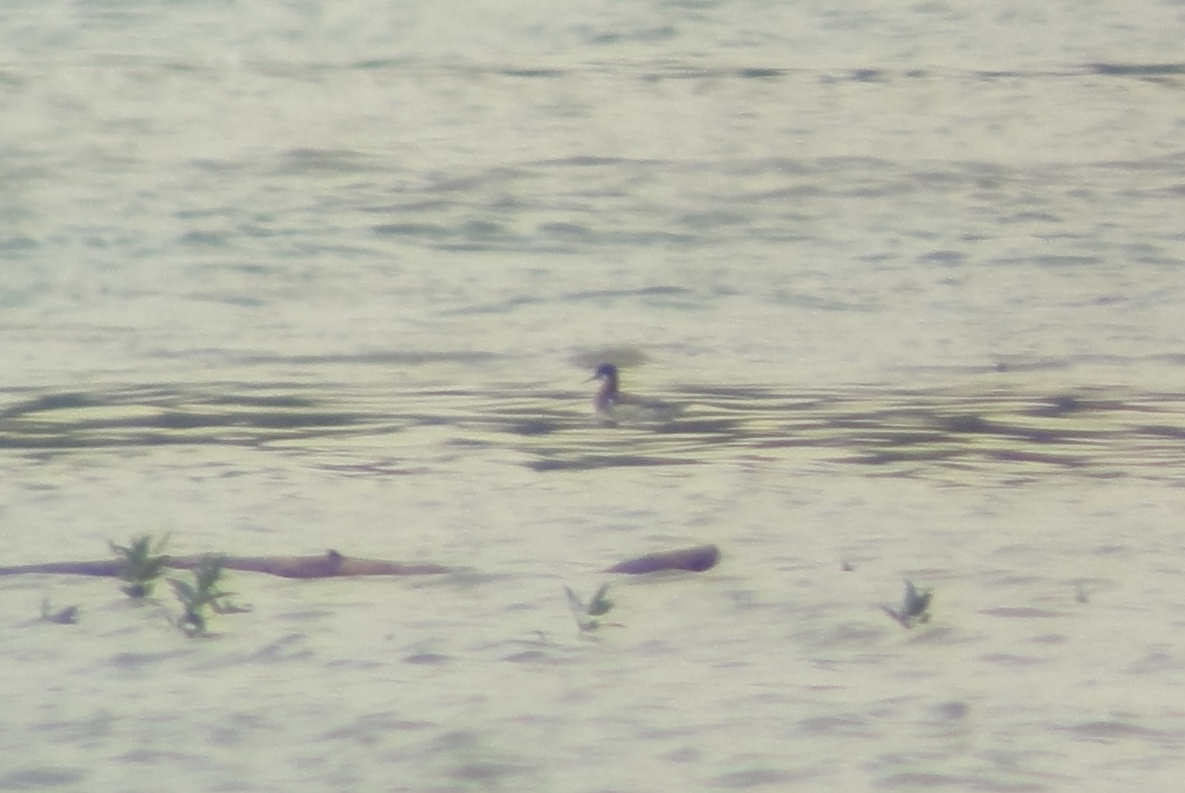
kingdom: Animalia
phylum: Chordata
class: Aves
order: Charadriiformes
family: Scolopacidae
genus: Phalaropus
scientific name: Phalaropus lobatus
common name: Red-necked phalarope
